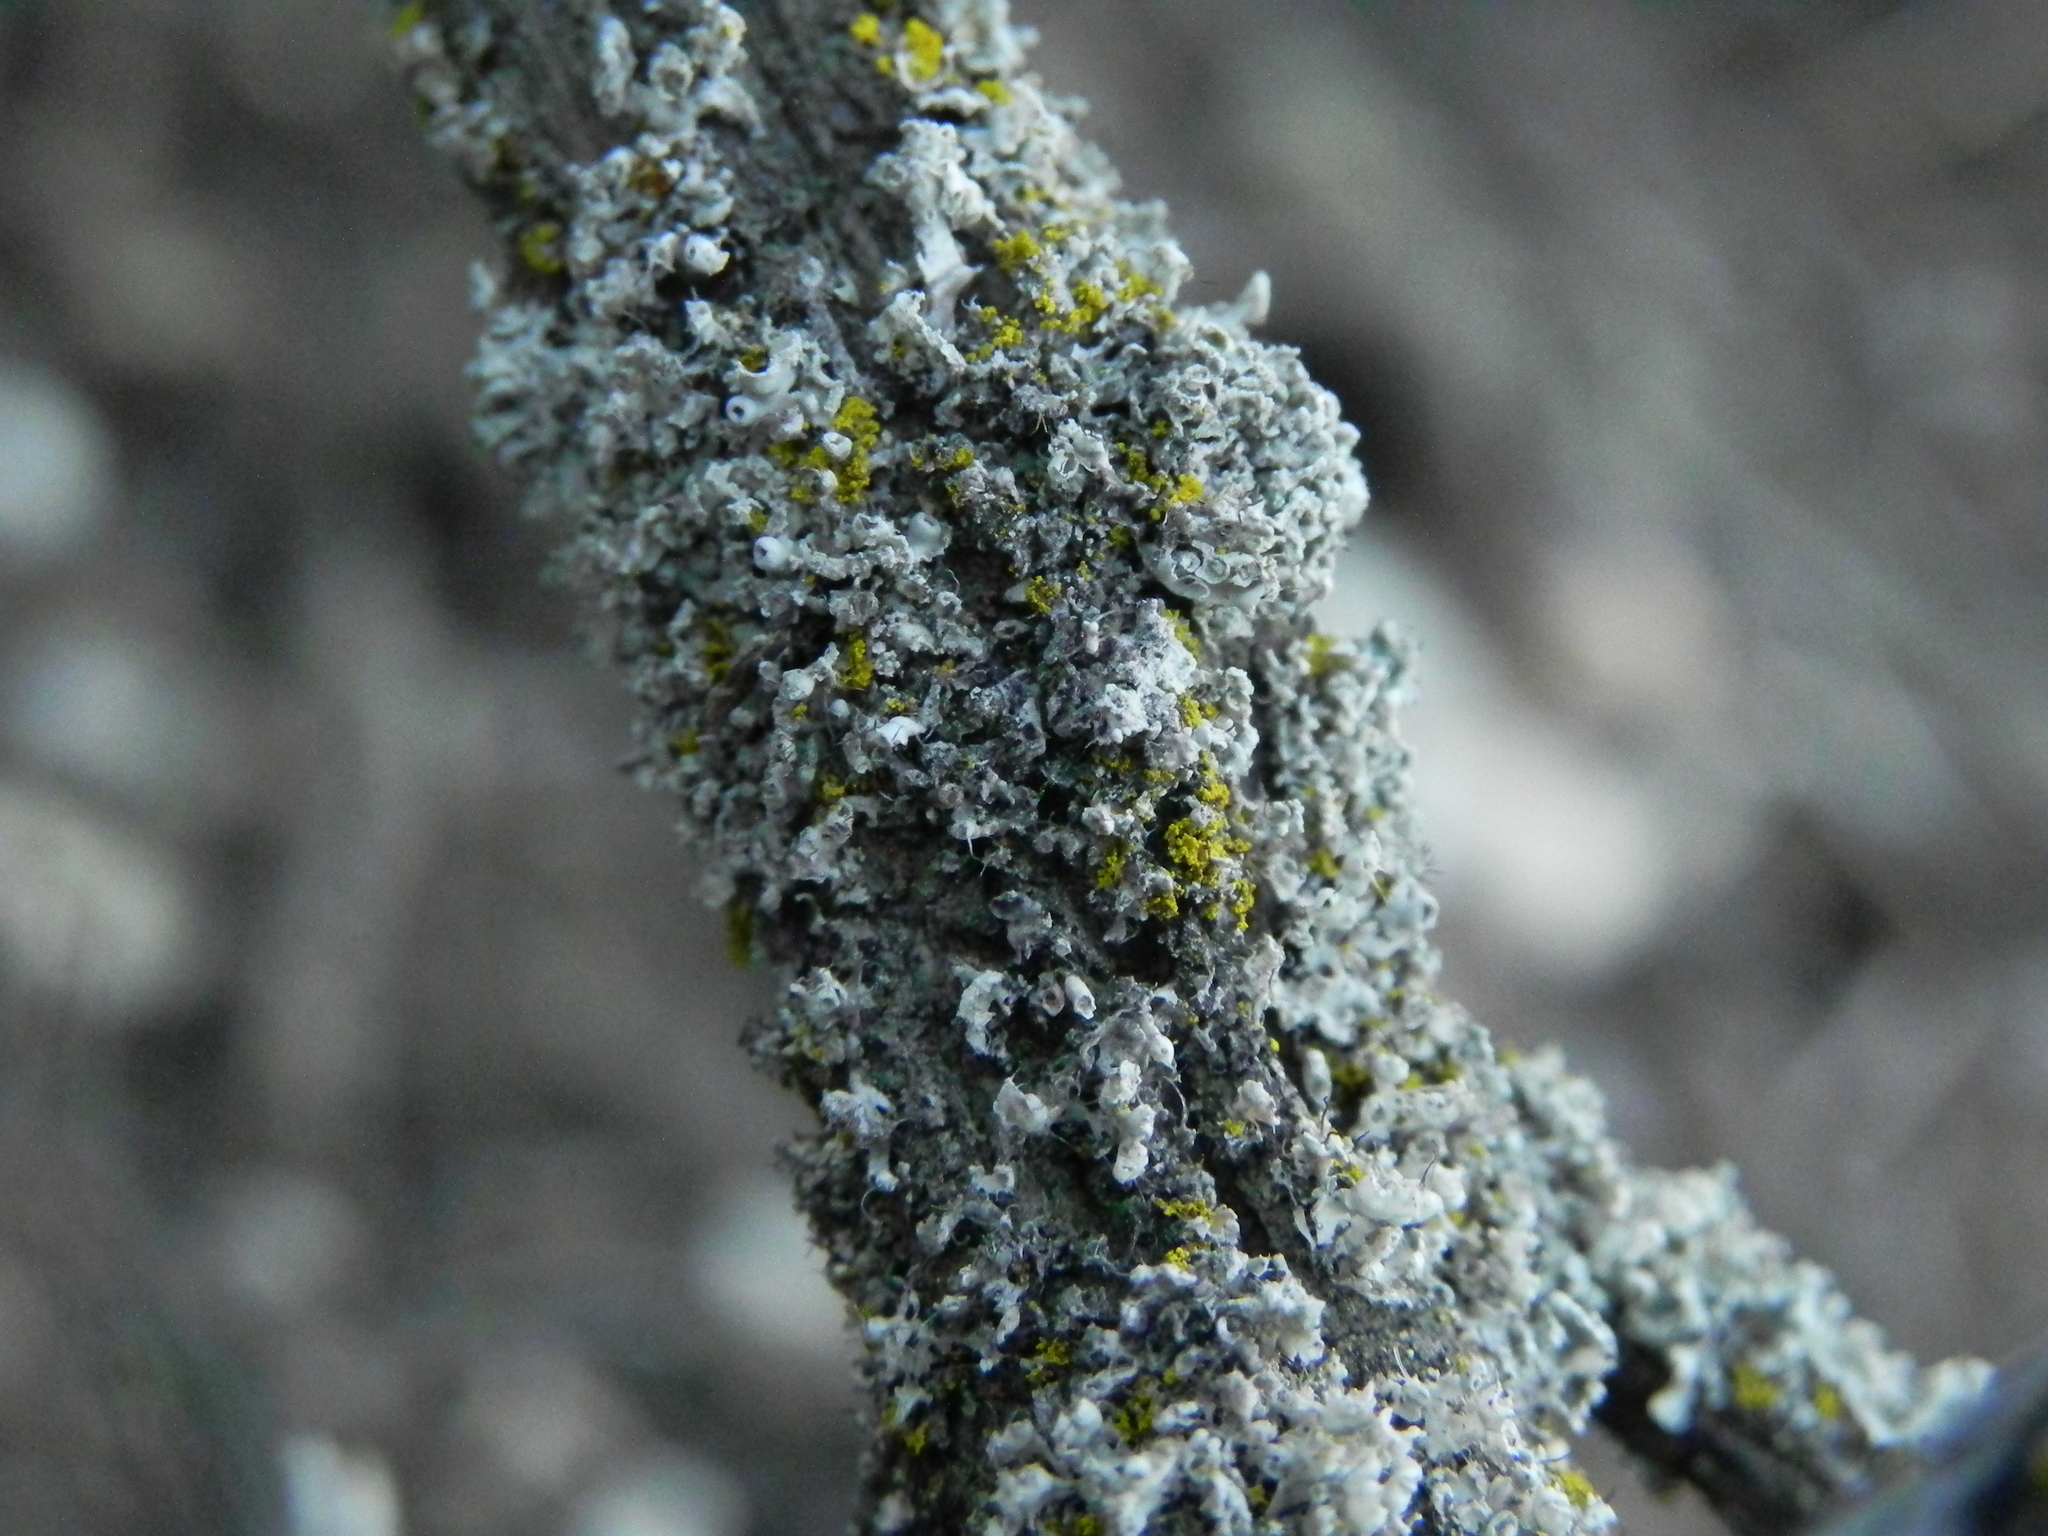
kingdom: Fungi
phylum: Ascomycota
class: Lecanoromycetes
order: Caliciales
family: Physciaceae
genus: Physcia
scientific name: Physcia adscendens
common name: Hooded rosette lichen
